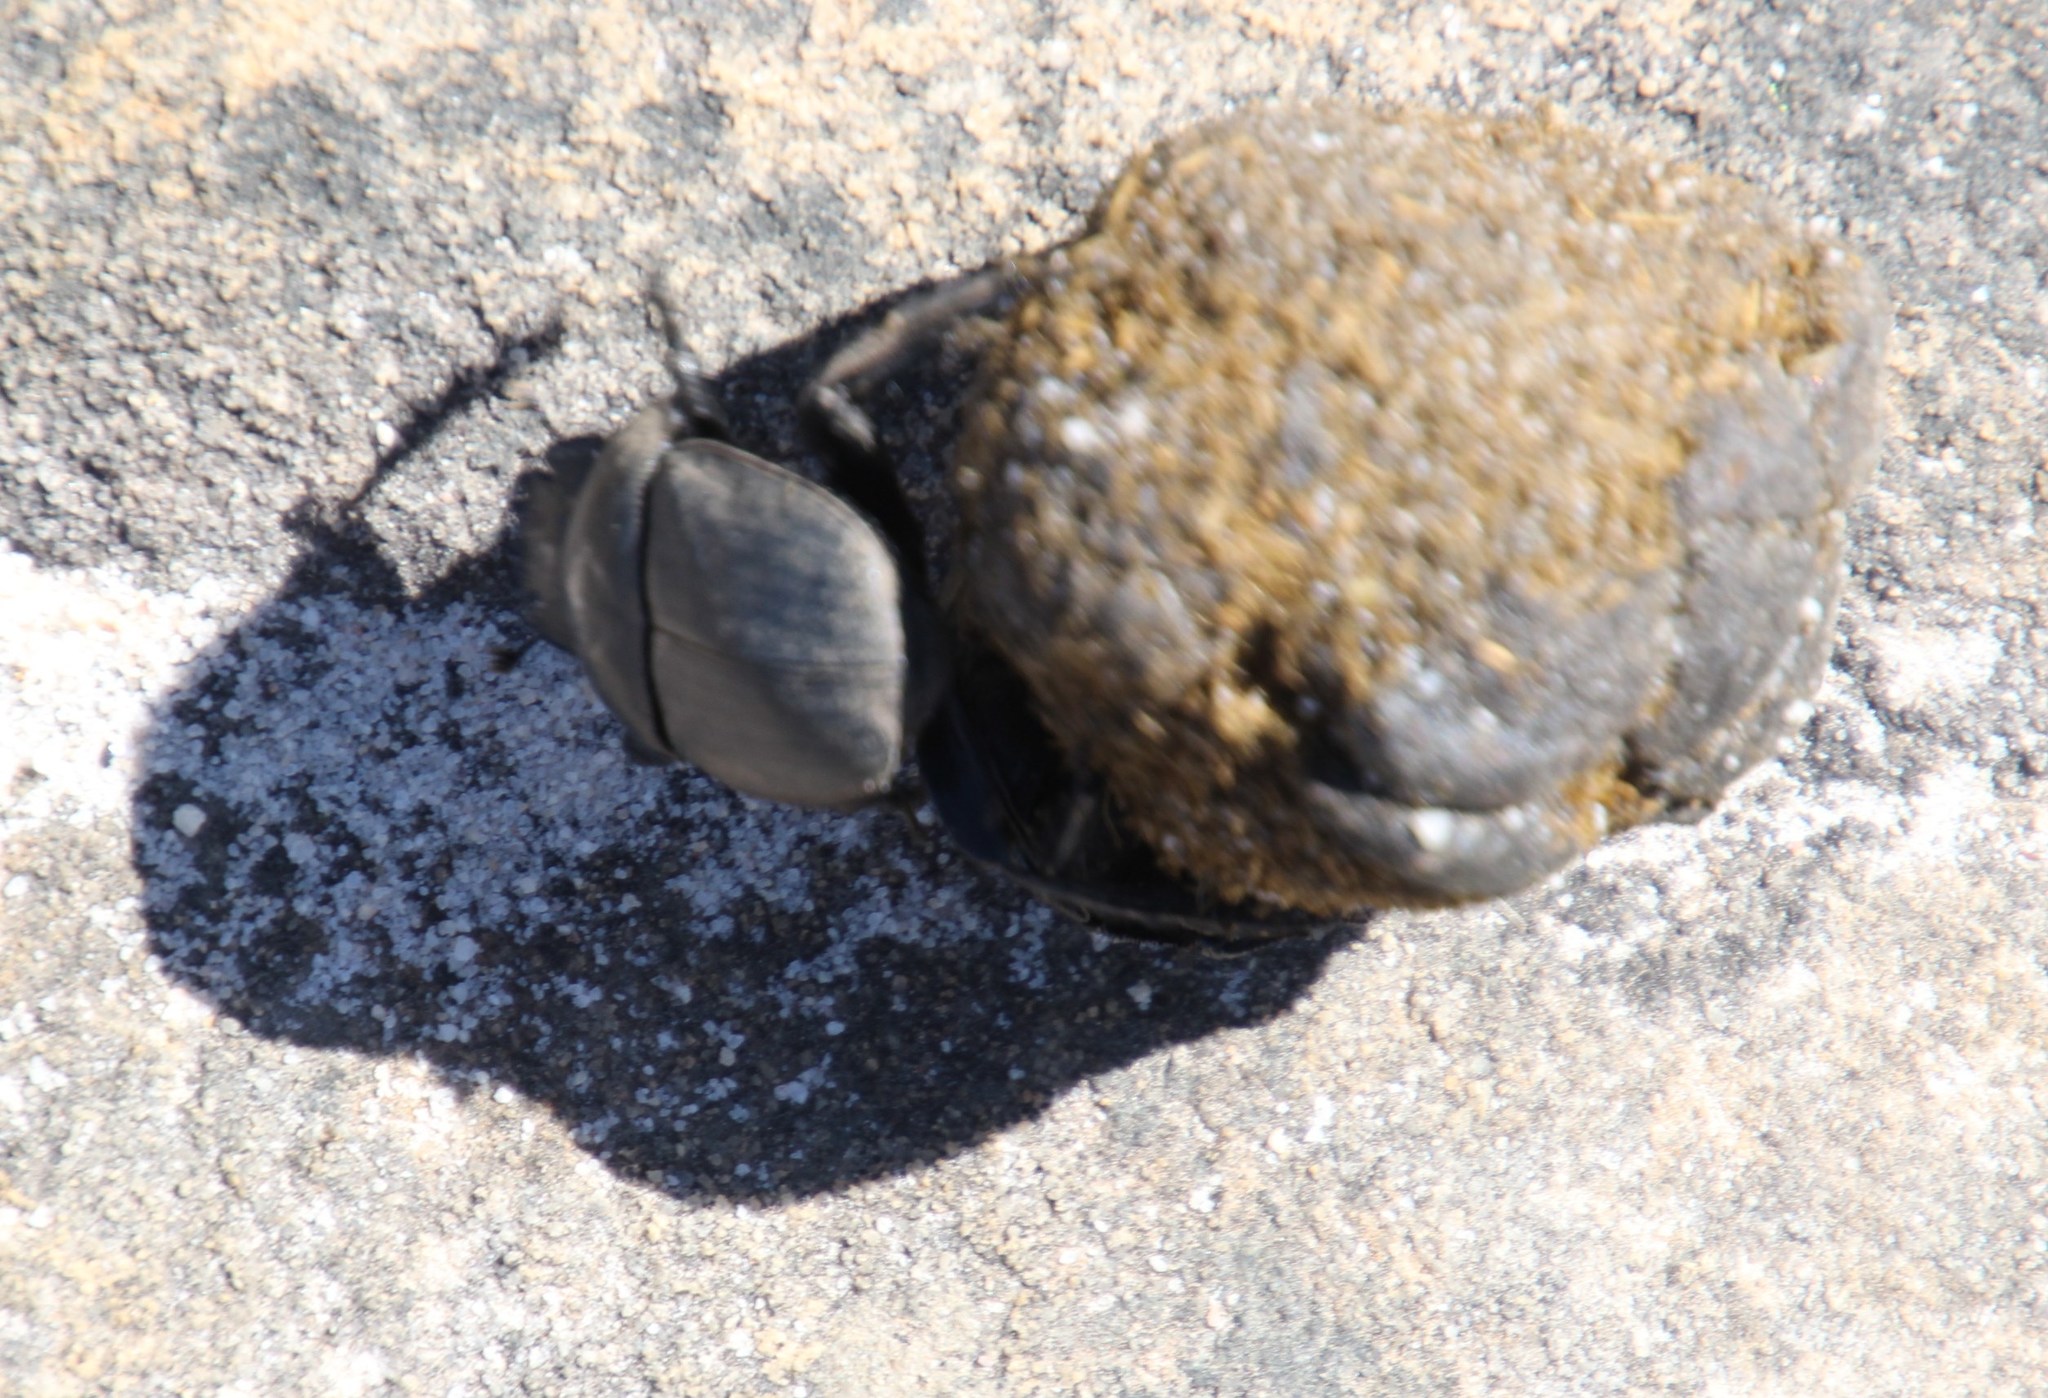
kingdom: Animalia
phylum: Arthropoda
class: Insecta
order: Coleoptera
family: Scarabaeidae
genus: Scarabaeus
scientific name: Scarabaeus suri
